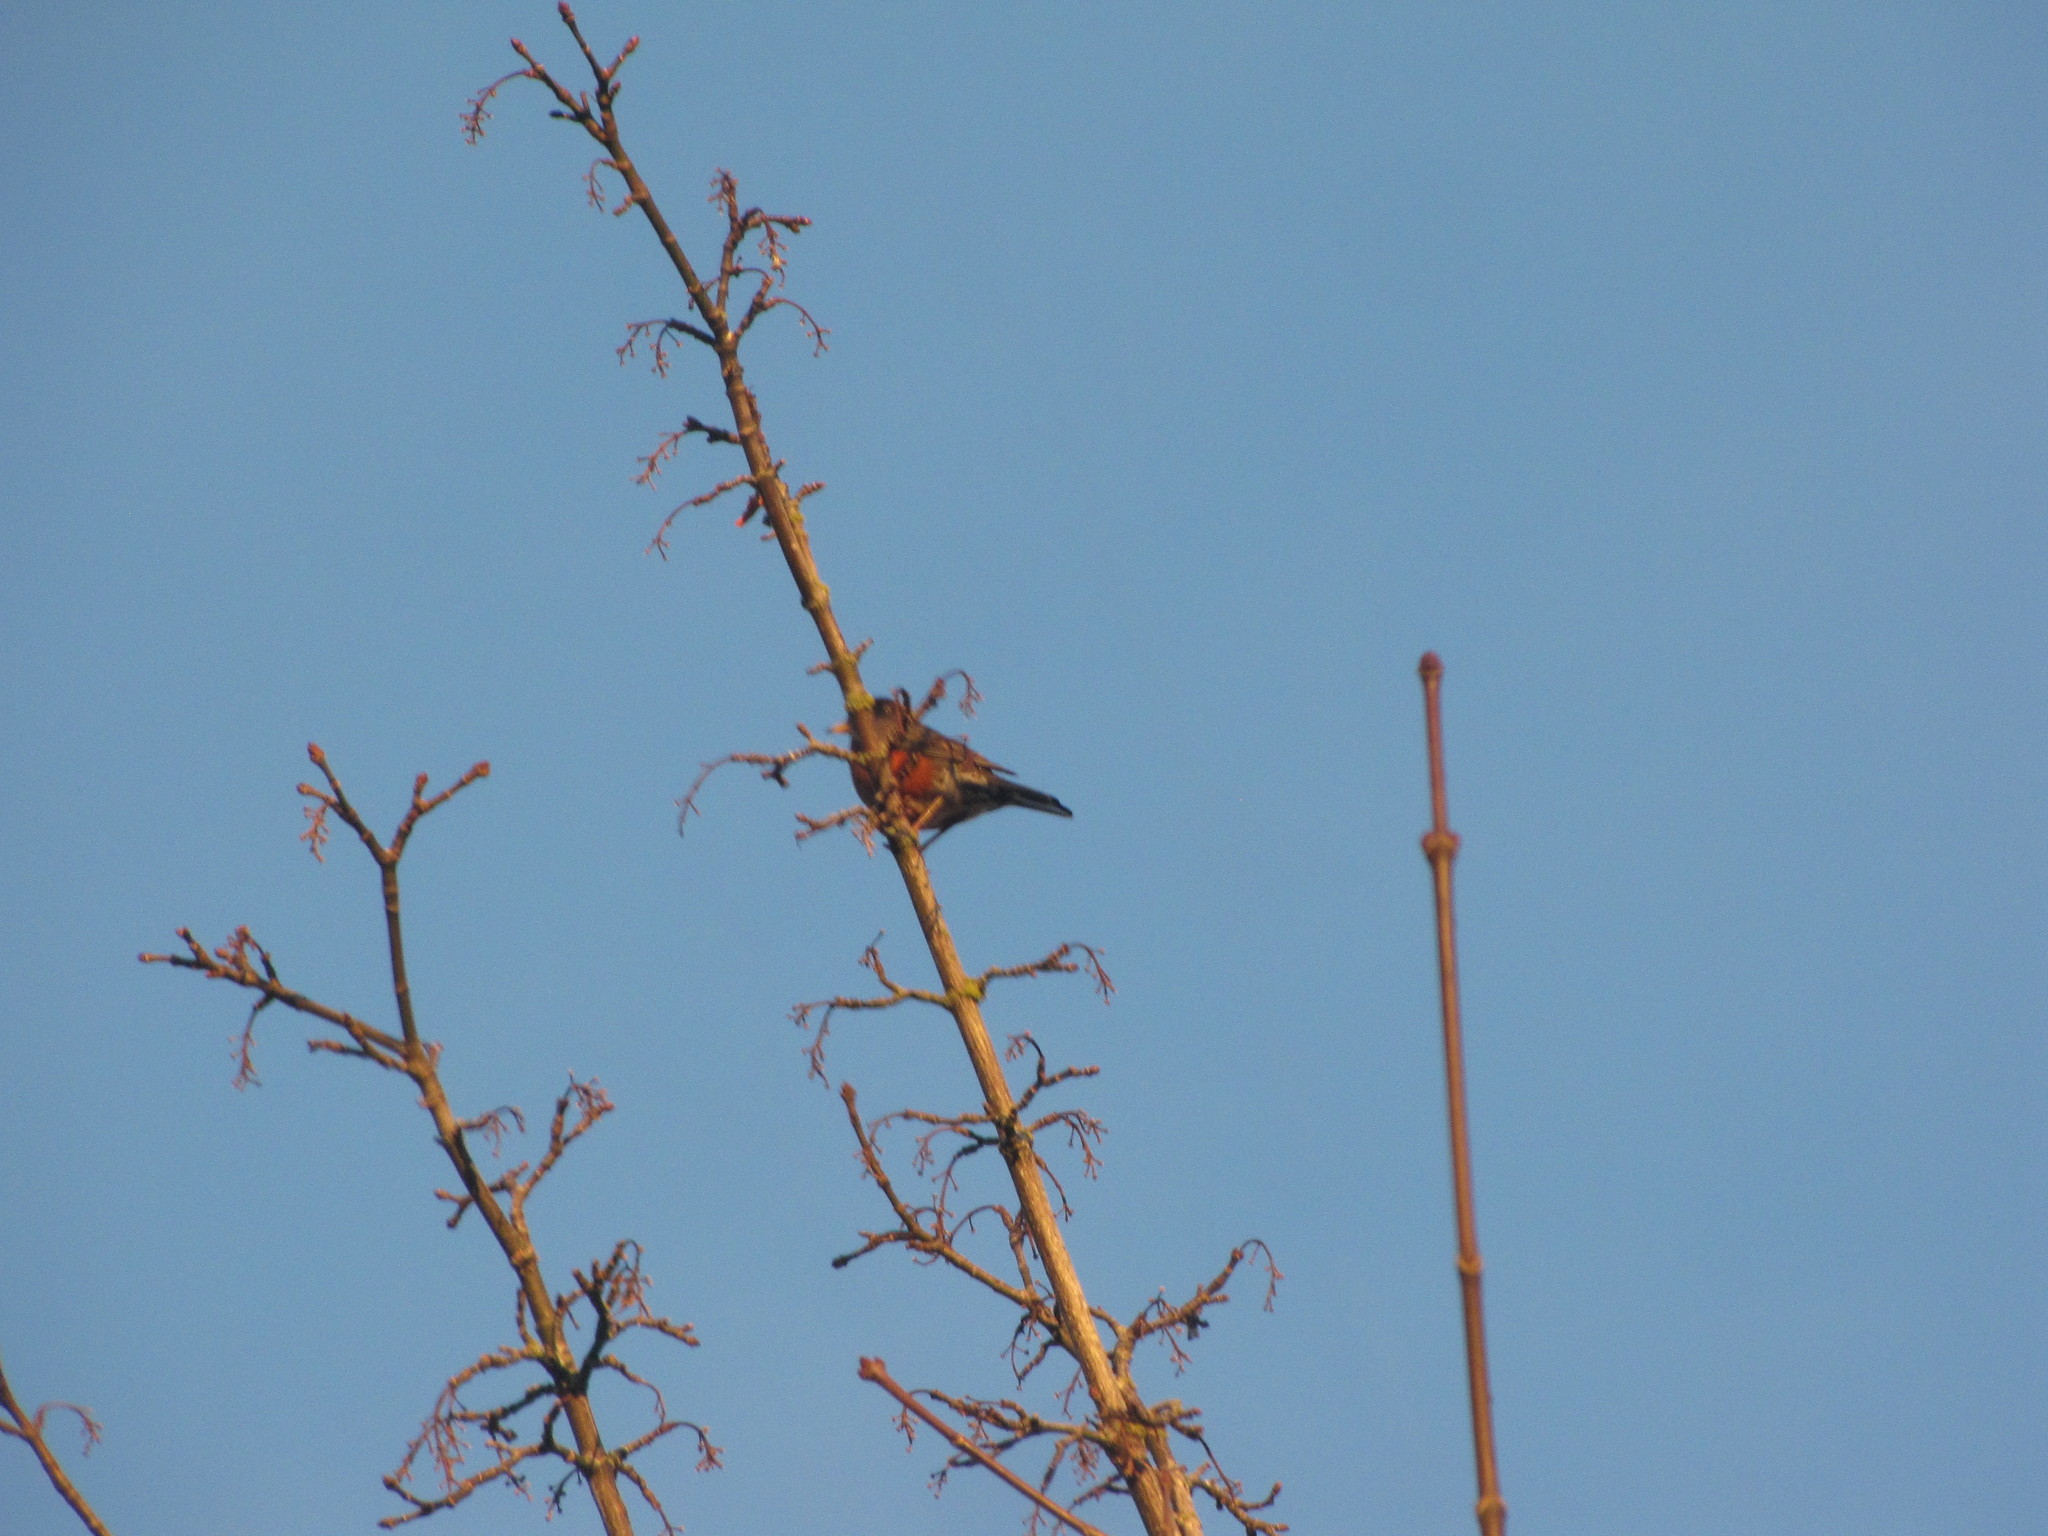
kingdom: Animalia
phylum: Chordata
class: Aves
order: Passeriformes
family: Turdidae
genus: Turdus
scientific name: Turdus migratorius
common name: American robin
